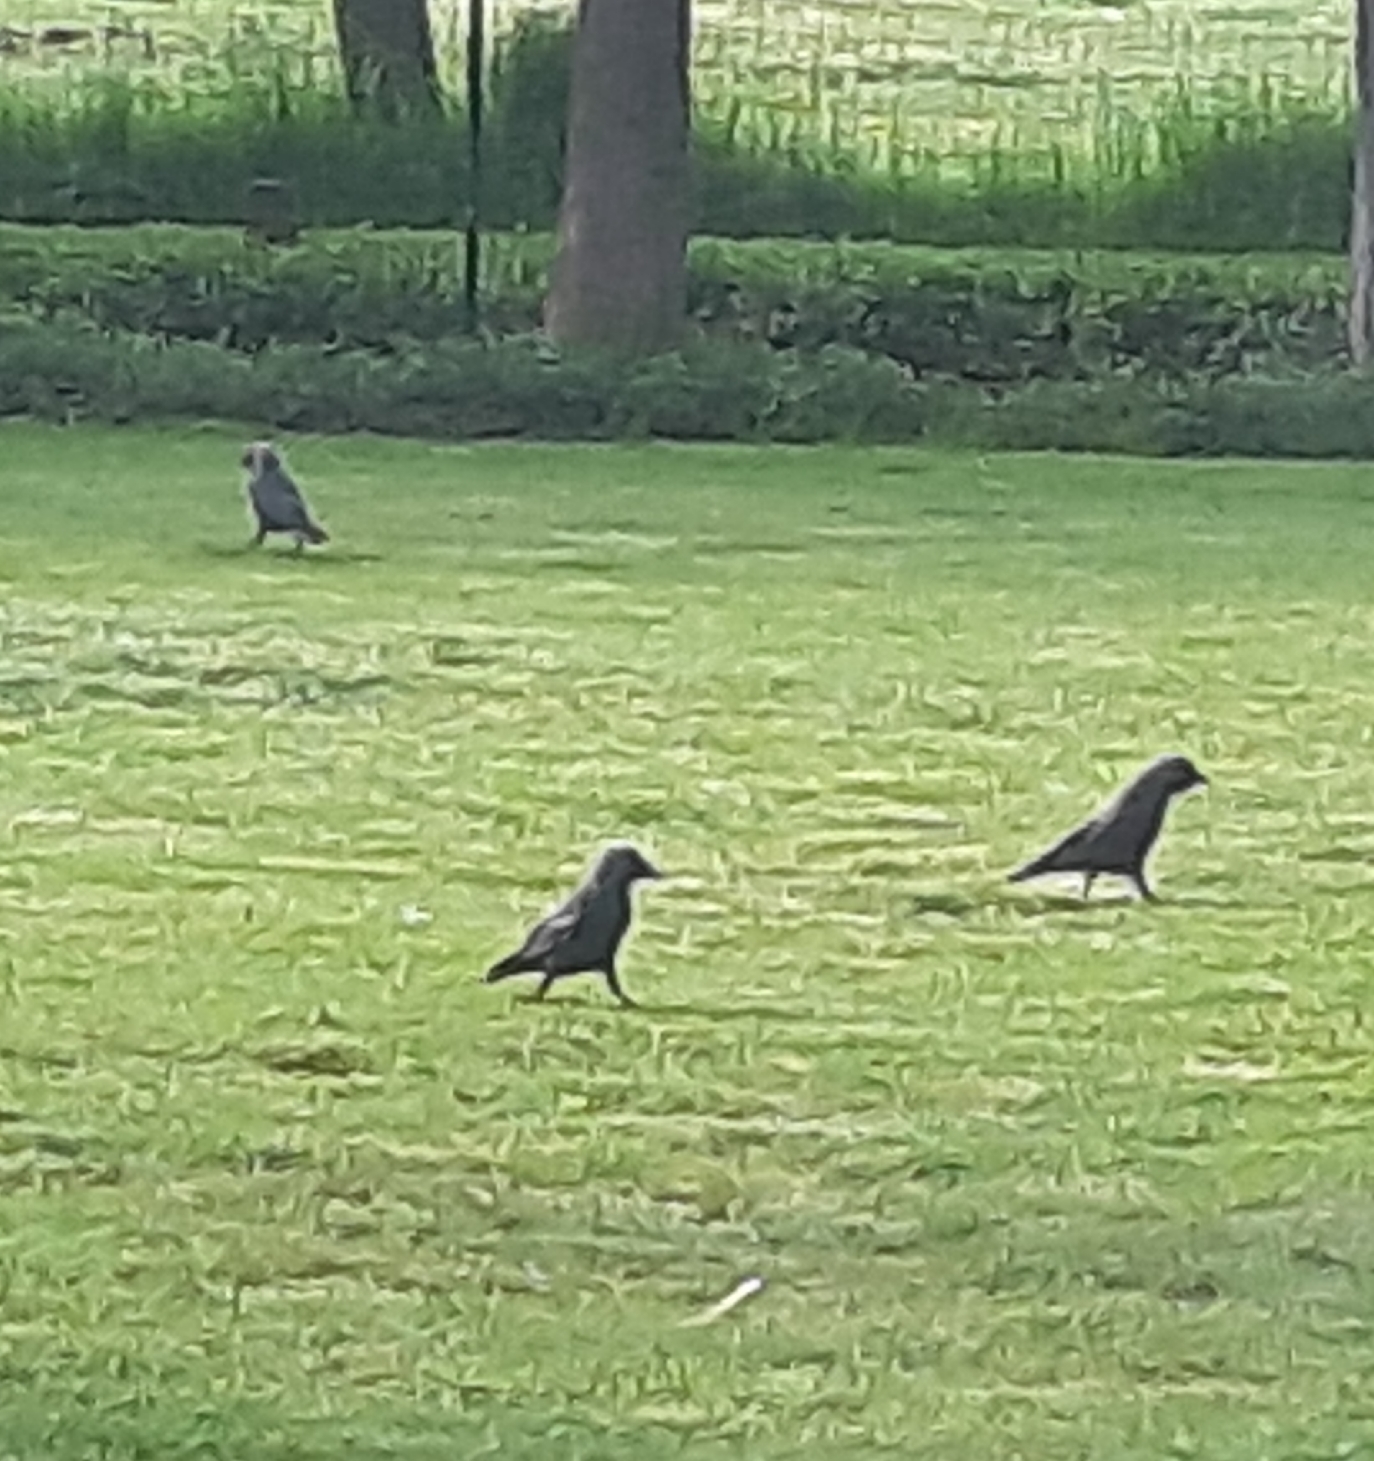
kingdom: Animalia
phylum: Chordata
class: Aves
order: Passeriformes
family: Corvidae
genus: Coloeus
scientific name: Coloeus monedula
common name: Western jackdaw
